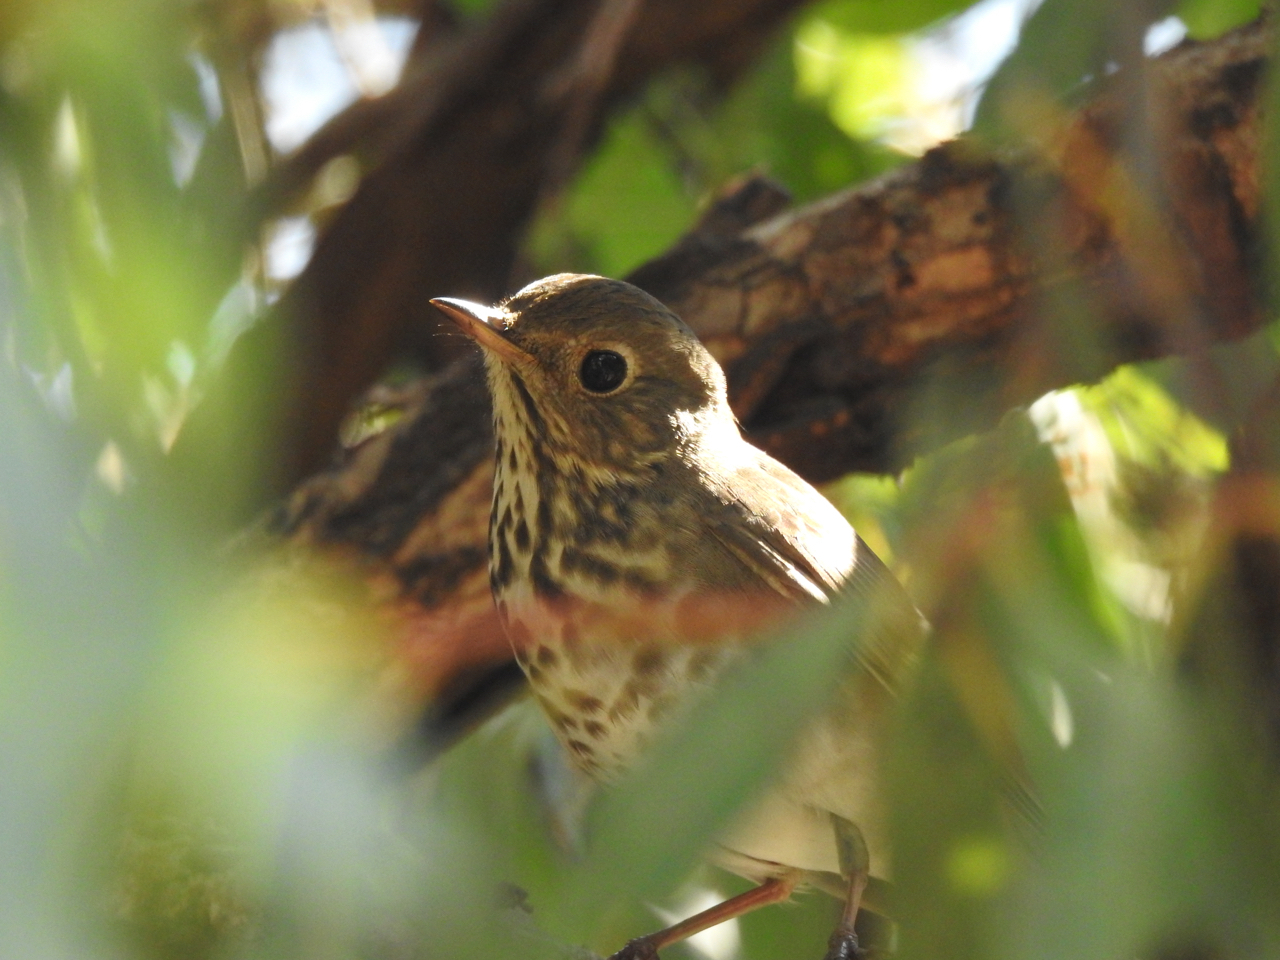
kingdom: Animalia
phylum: Chordata
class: Aves
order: Passeriformes
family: Turdidae
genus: Catharus
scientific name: Catharus guttatus
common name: Hermit thrush
